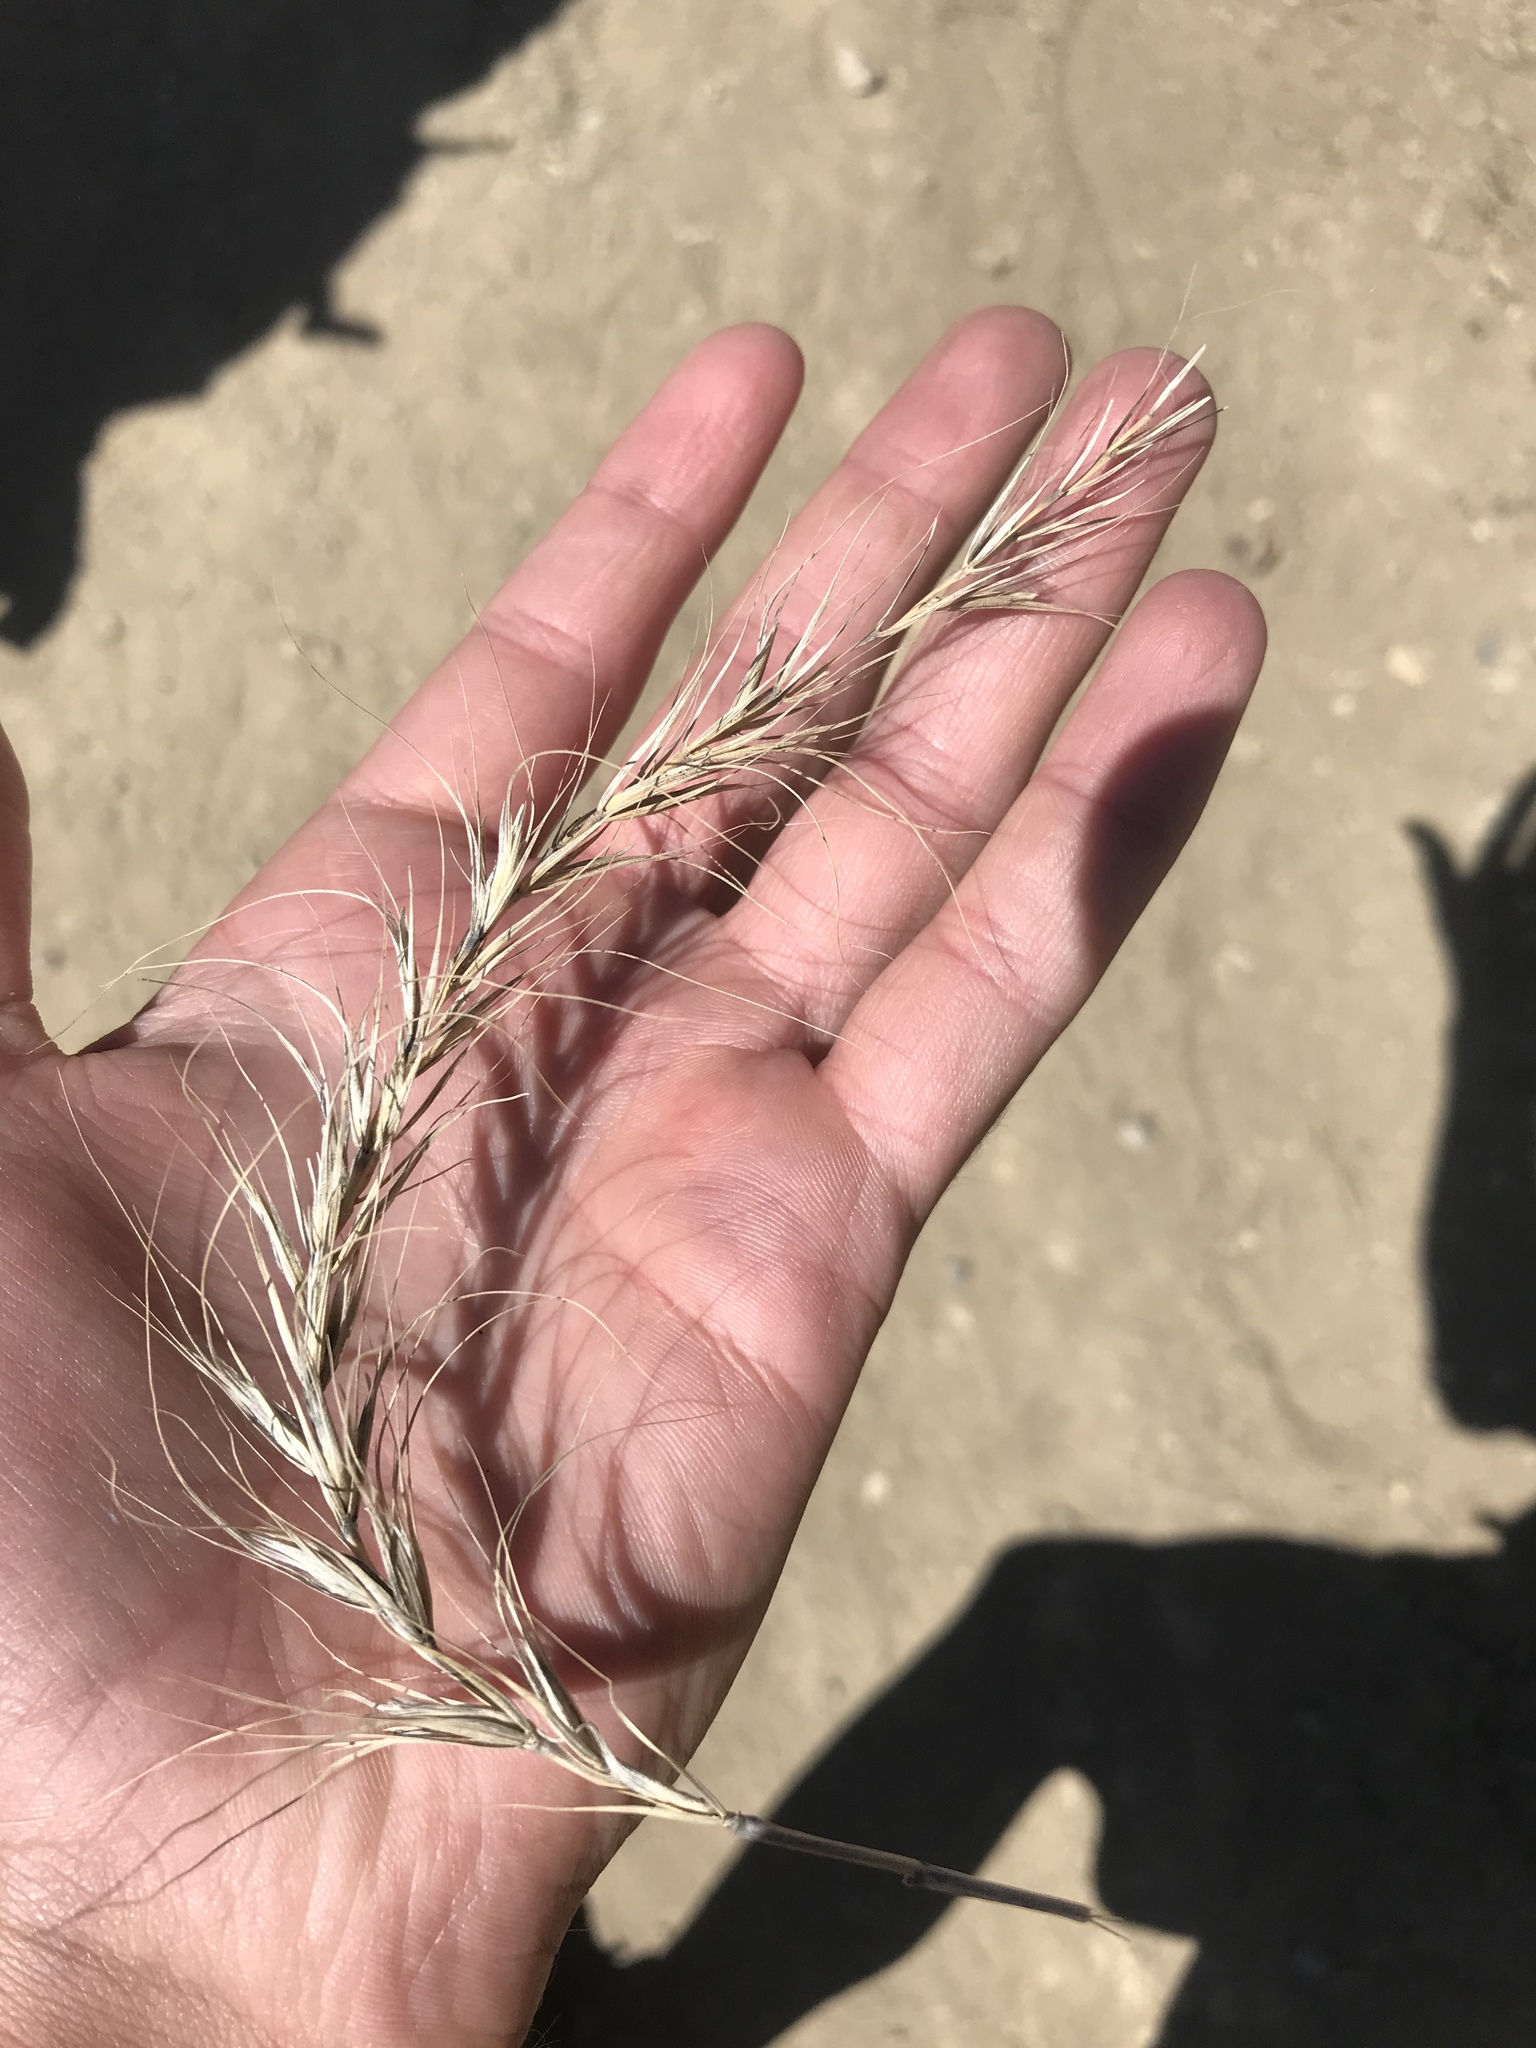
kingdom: Plantae
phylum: Tracheophyta
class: Liliopsida
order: Poales
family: Poaceae
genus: Elymus
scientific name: Elymus canadensis
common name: Canada wild rye
